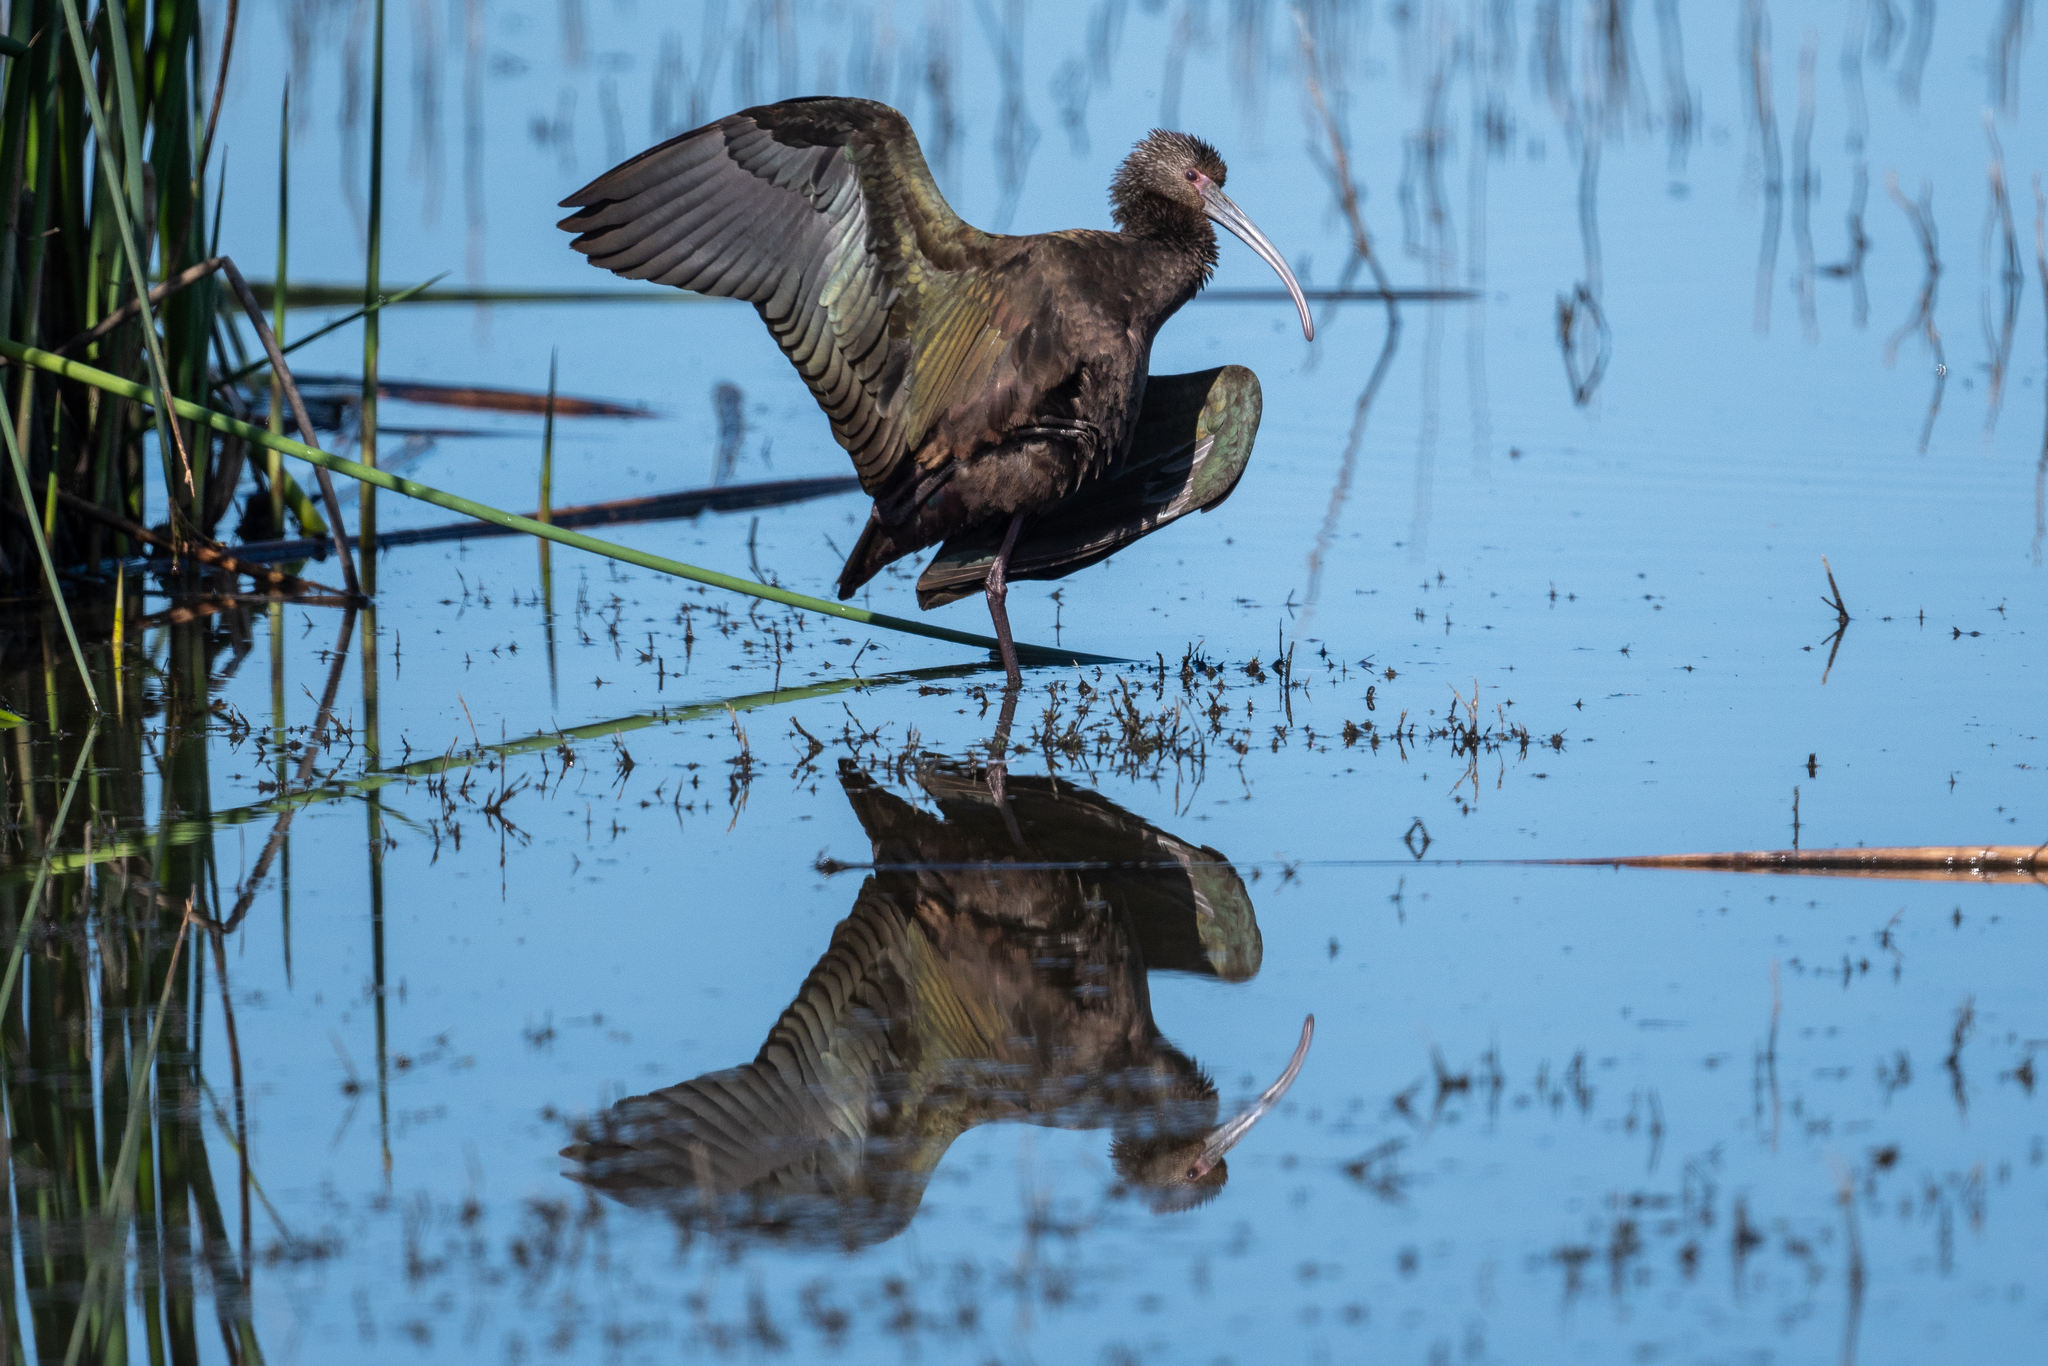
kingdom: Animalia
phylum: Chordata
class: Aves
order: Pelecaniformes
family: Threskiornithidae
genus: Plegadis
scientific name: Plegadis chihi
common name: White-faced ibis
